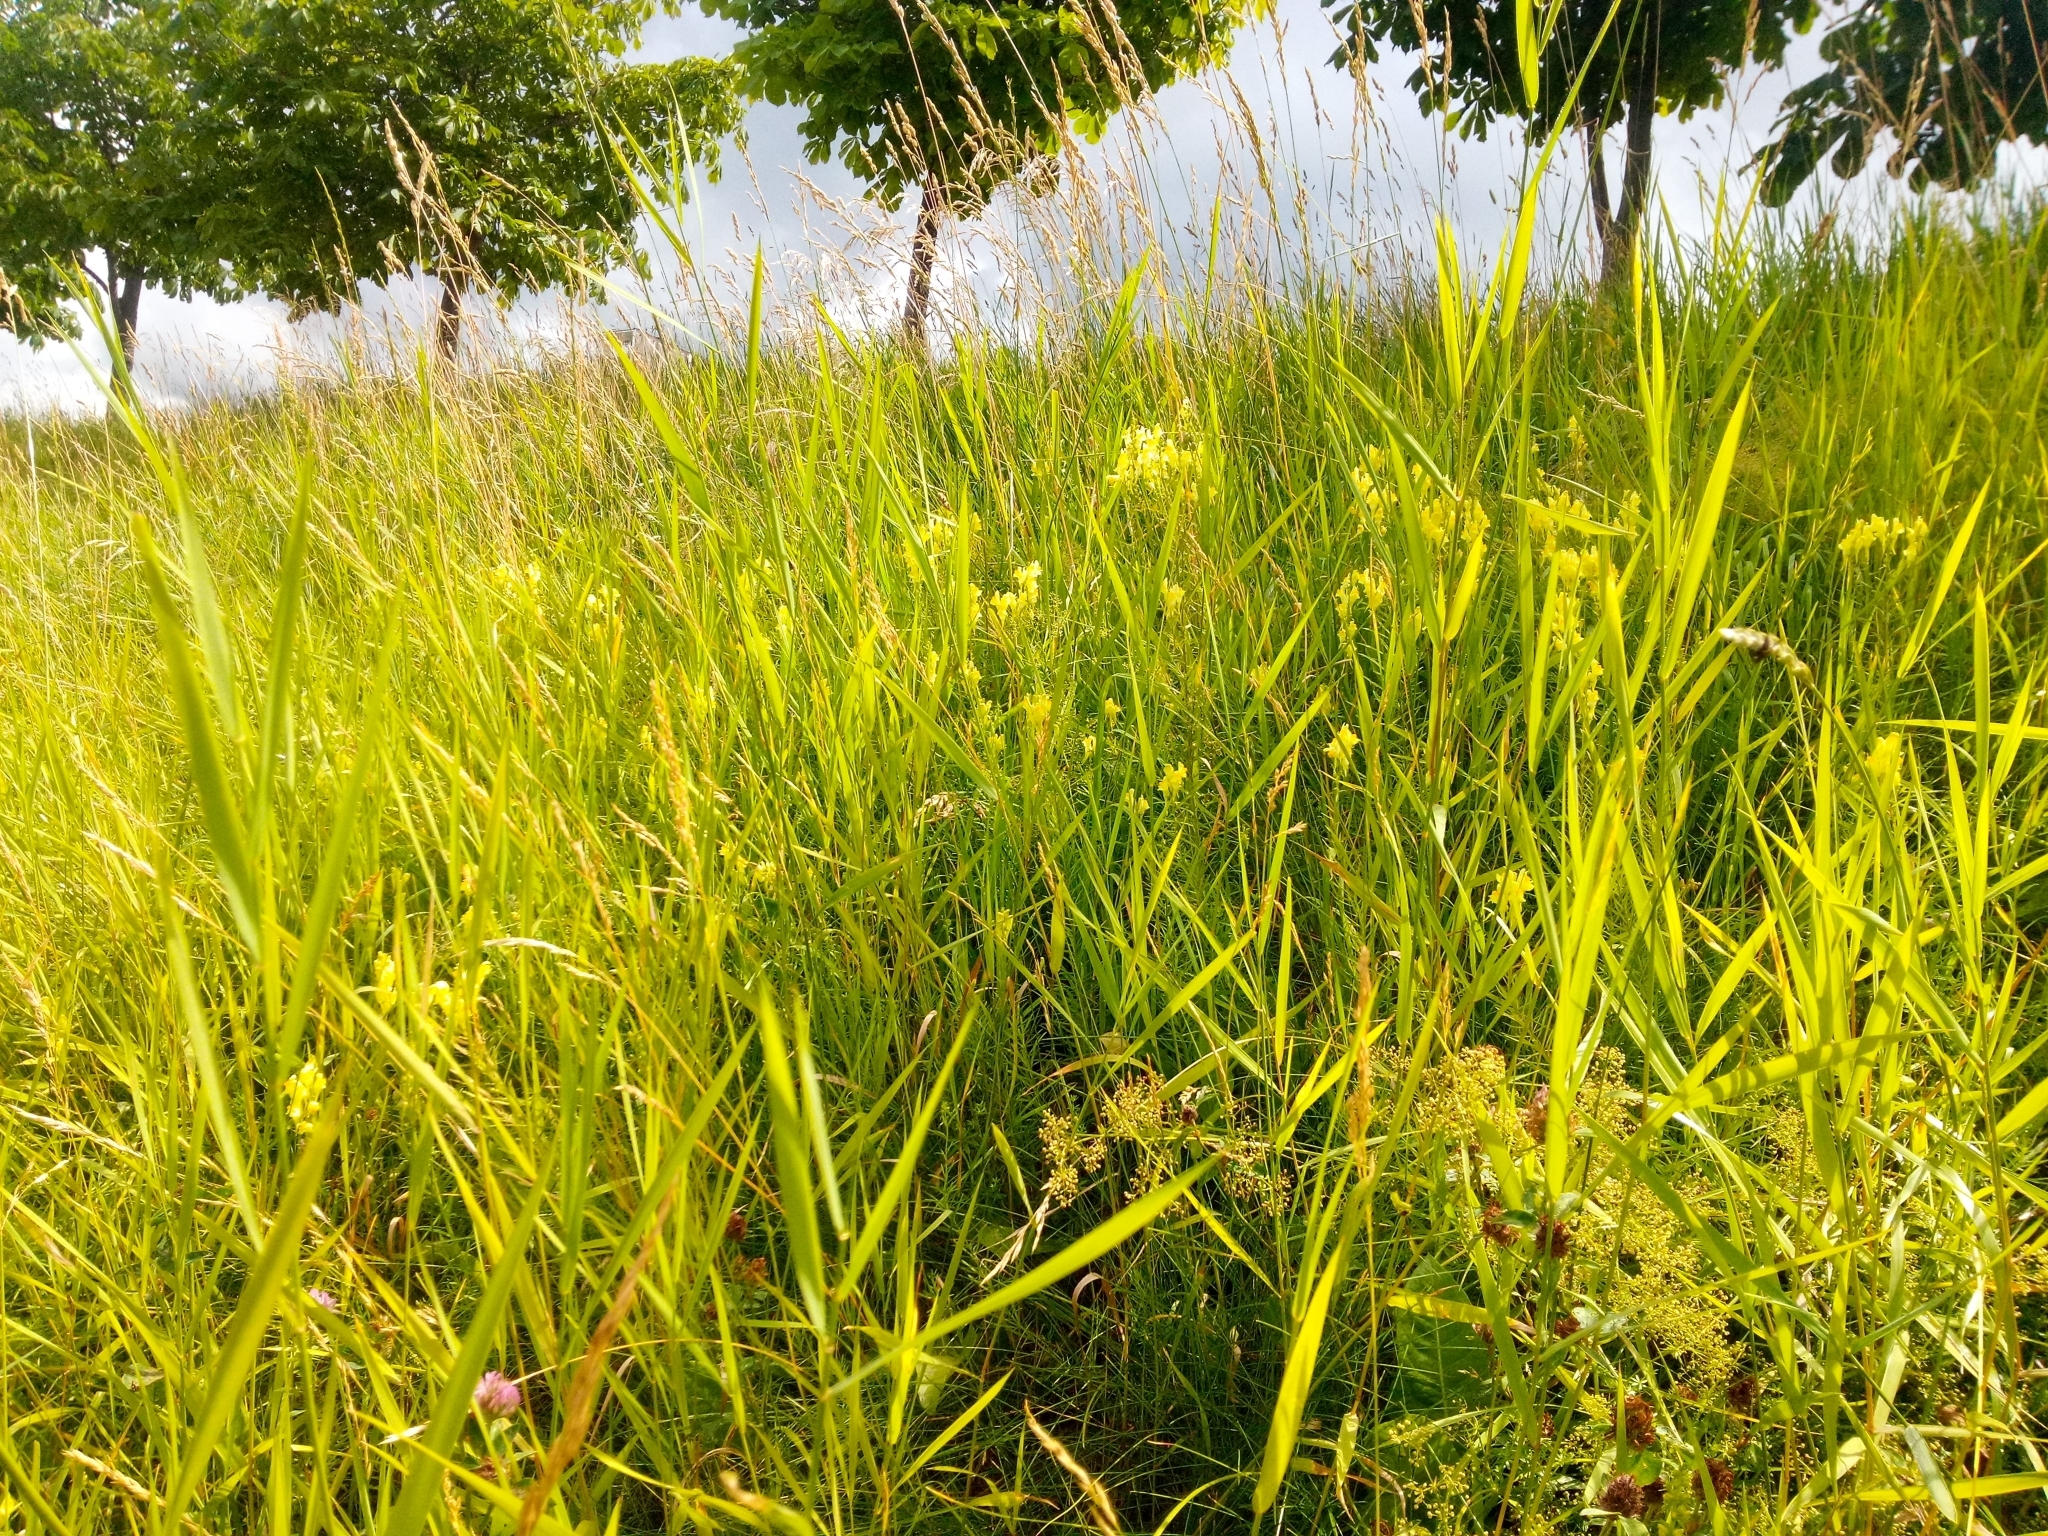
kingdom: Plantae
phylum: Tracheophyta
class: Magnoliopsida
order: Lamiales
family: Plantaginaceae
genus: Linaria
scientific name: Linaria vulgaris
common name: Butter and eggs
